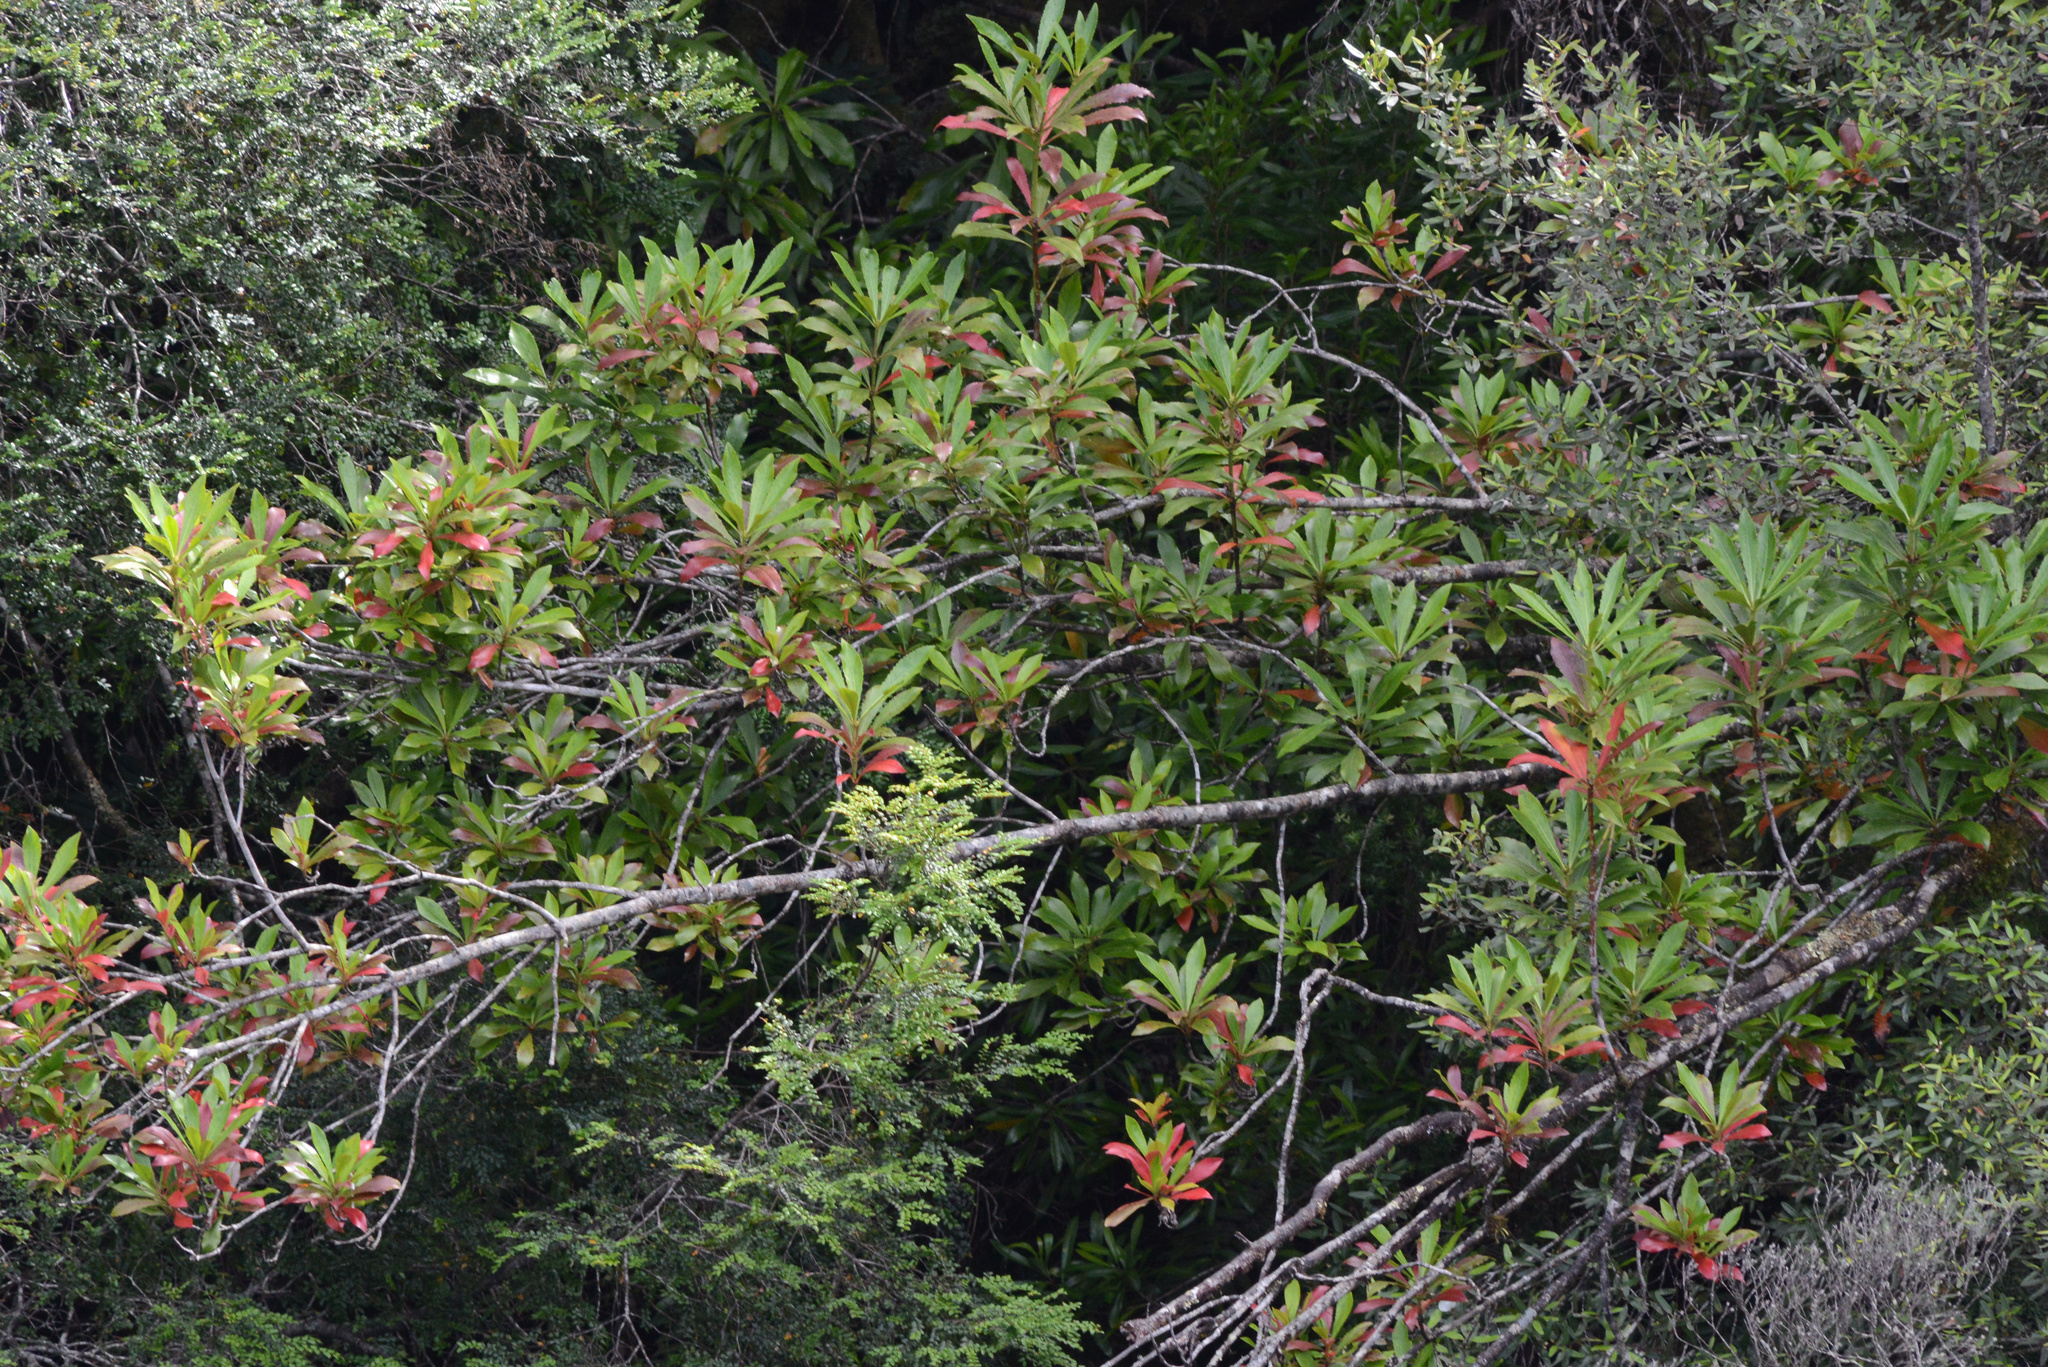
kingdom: Plantae
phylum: Tracheophyta
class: Magnoliopsida
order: Escalloniales
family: Escalloniaceae
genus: Anopterus
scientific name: Anopterus glandulosus
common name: Tasmanian-laurel
